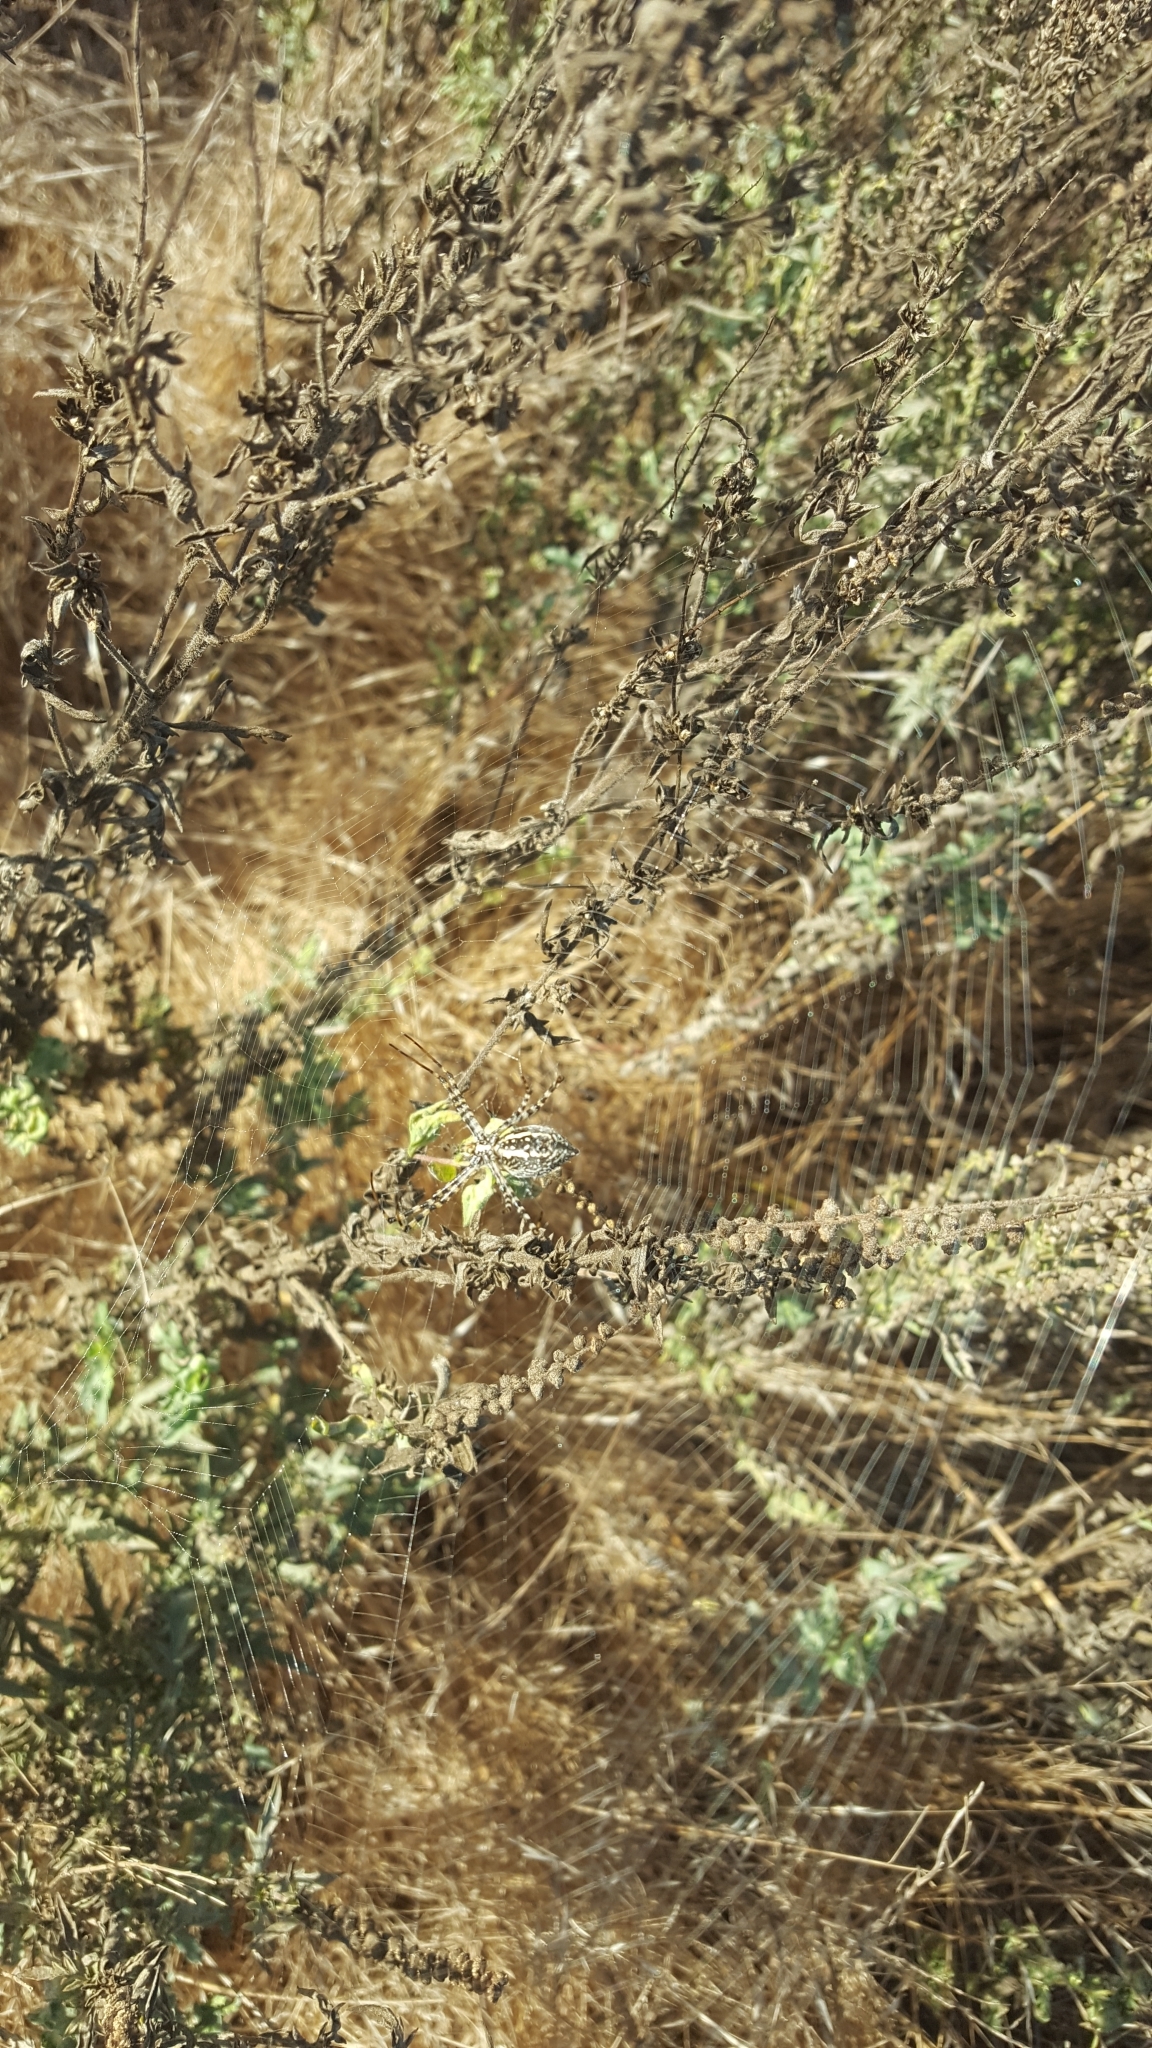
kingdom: Animalia
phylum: Arthropoda
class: Arachnida
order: Araneae
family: Araneidae
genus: Argiope
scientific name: Argiope trifasciata
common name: Banded garden spider
